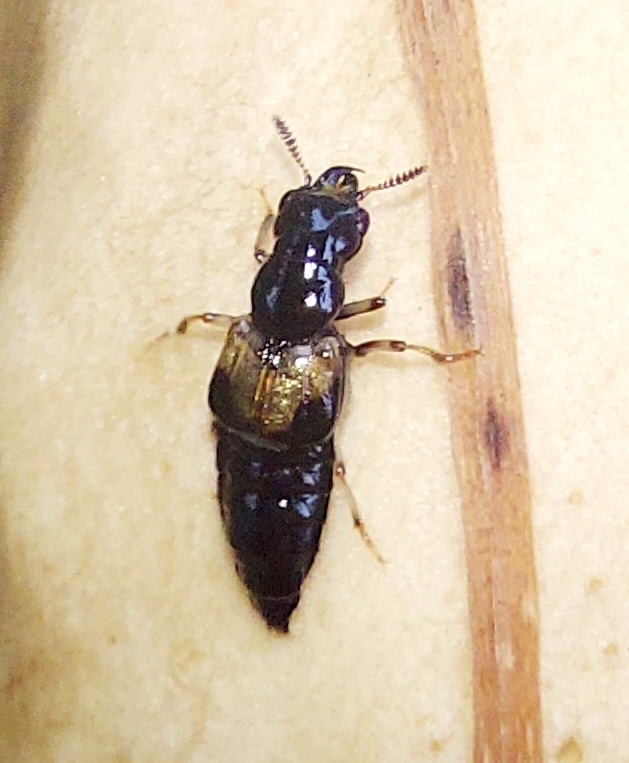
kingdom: Animalia
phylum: Arthropoda
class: Insecta
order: Coleoptera
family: Staphylinidae
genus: Oxyporus
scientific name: Oxyporus maxillosus
